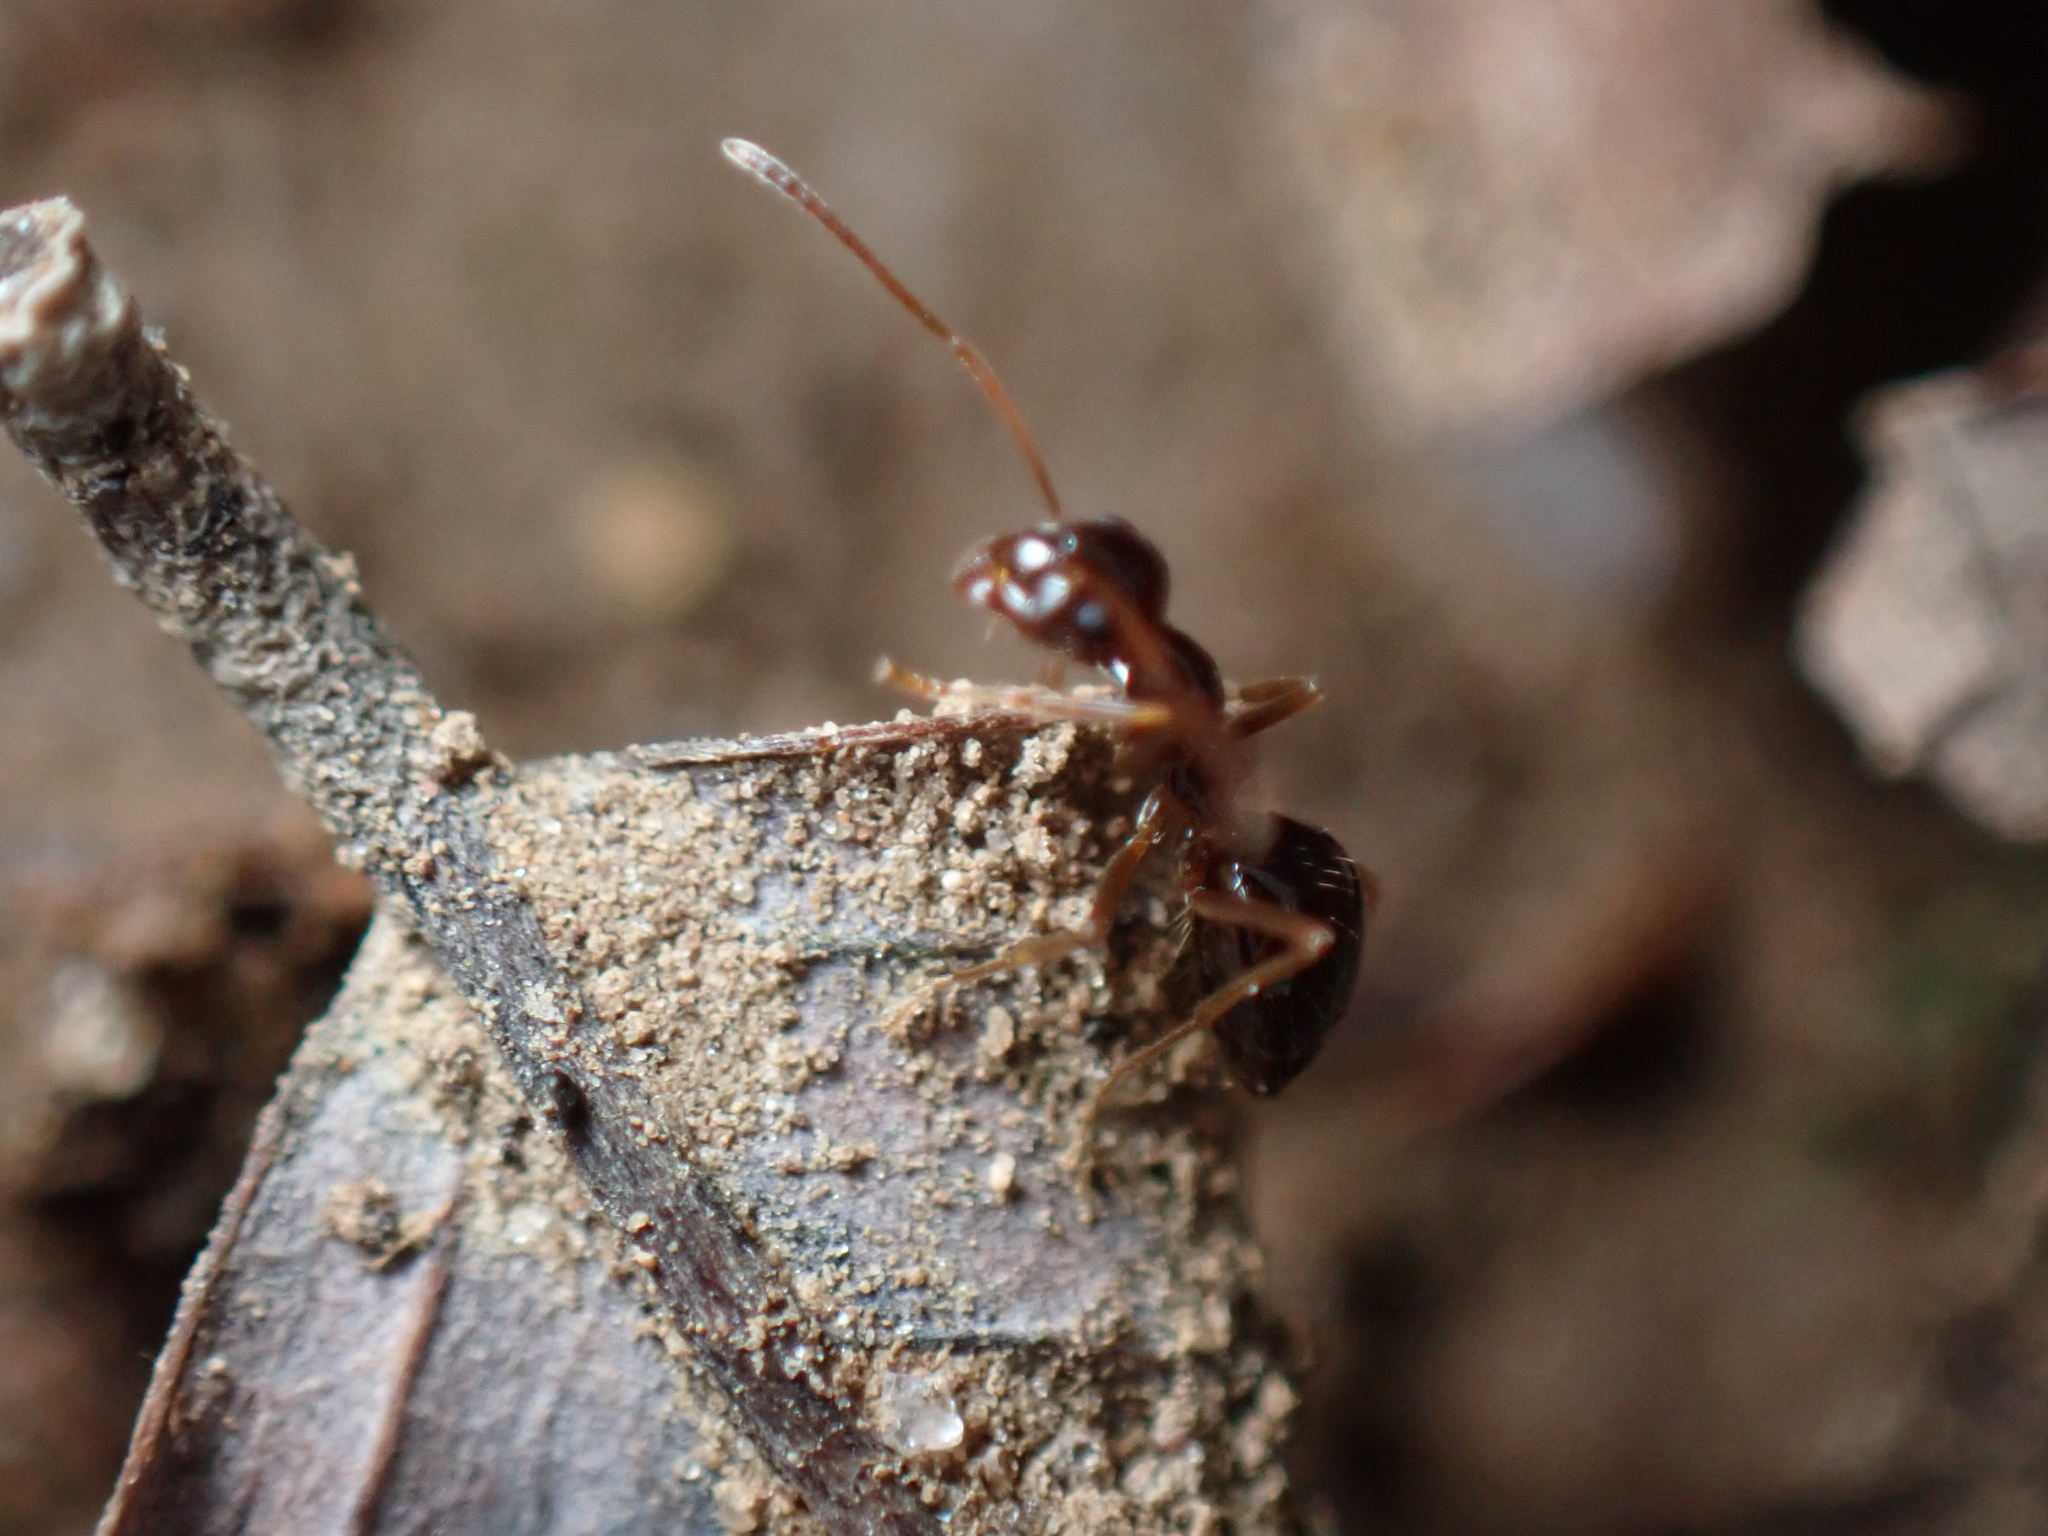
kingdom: Animalia
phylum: Arthropoda
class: Insecta
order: Hymenoptera
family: Formicidae
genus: Prenolepis
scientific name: Prenolepis imparis
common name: Small honey ant
